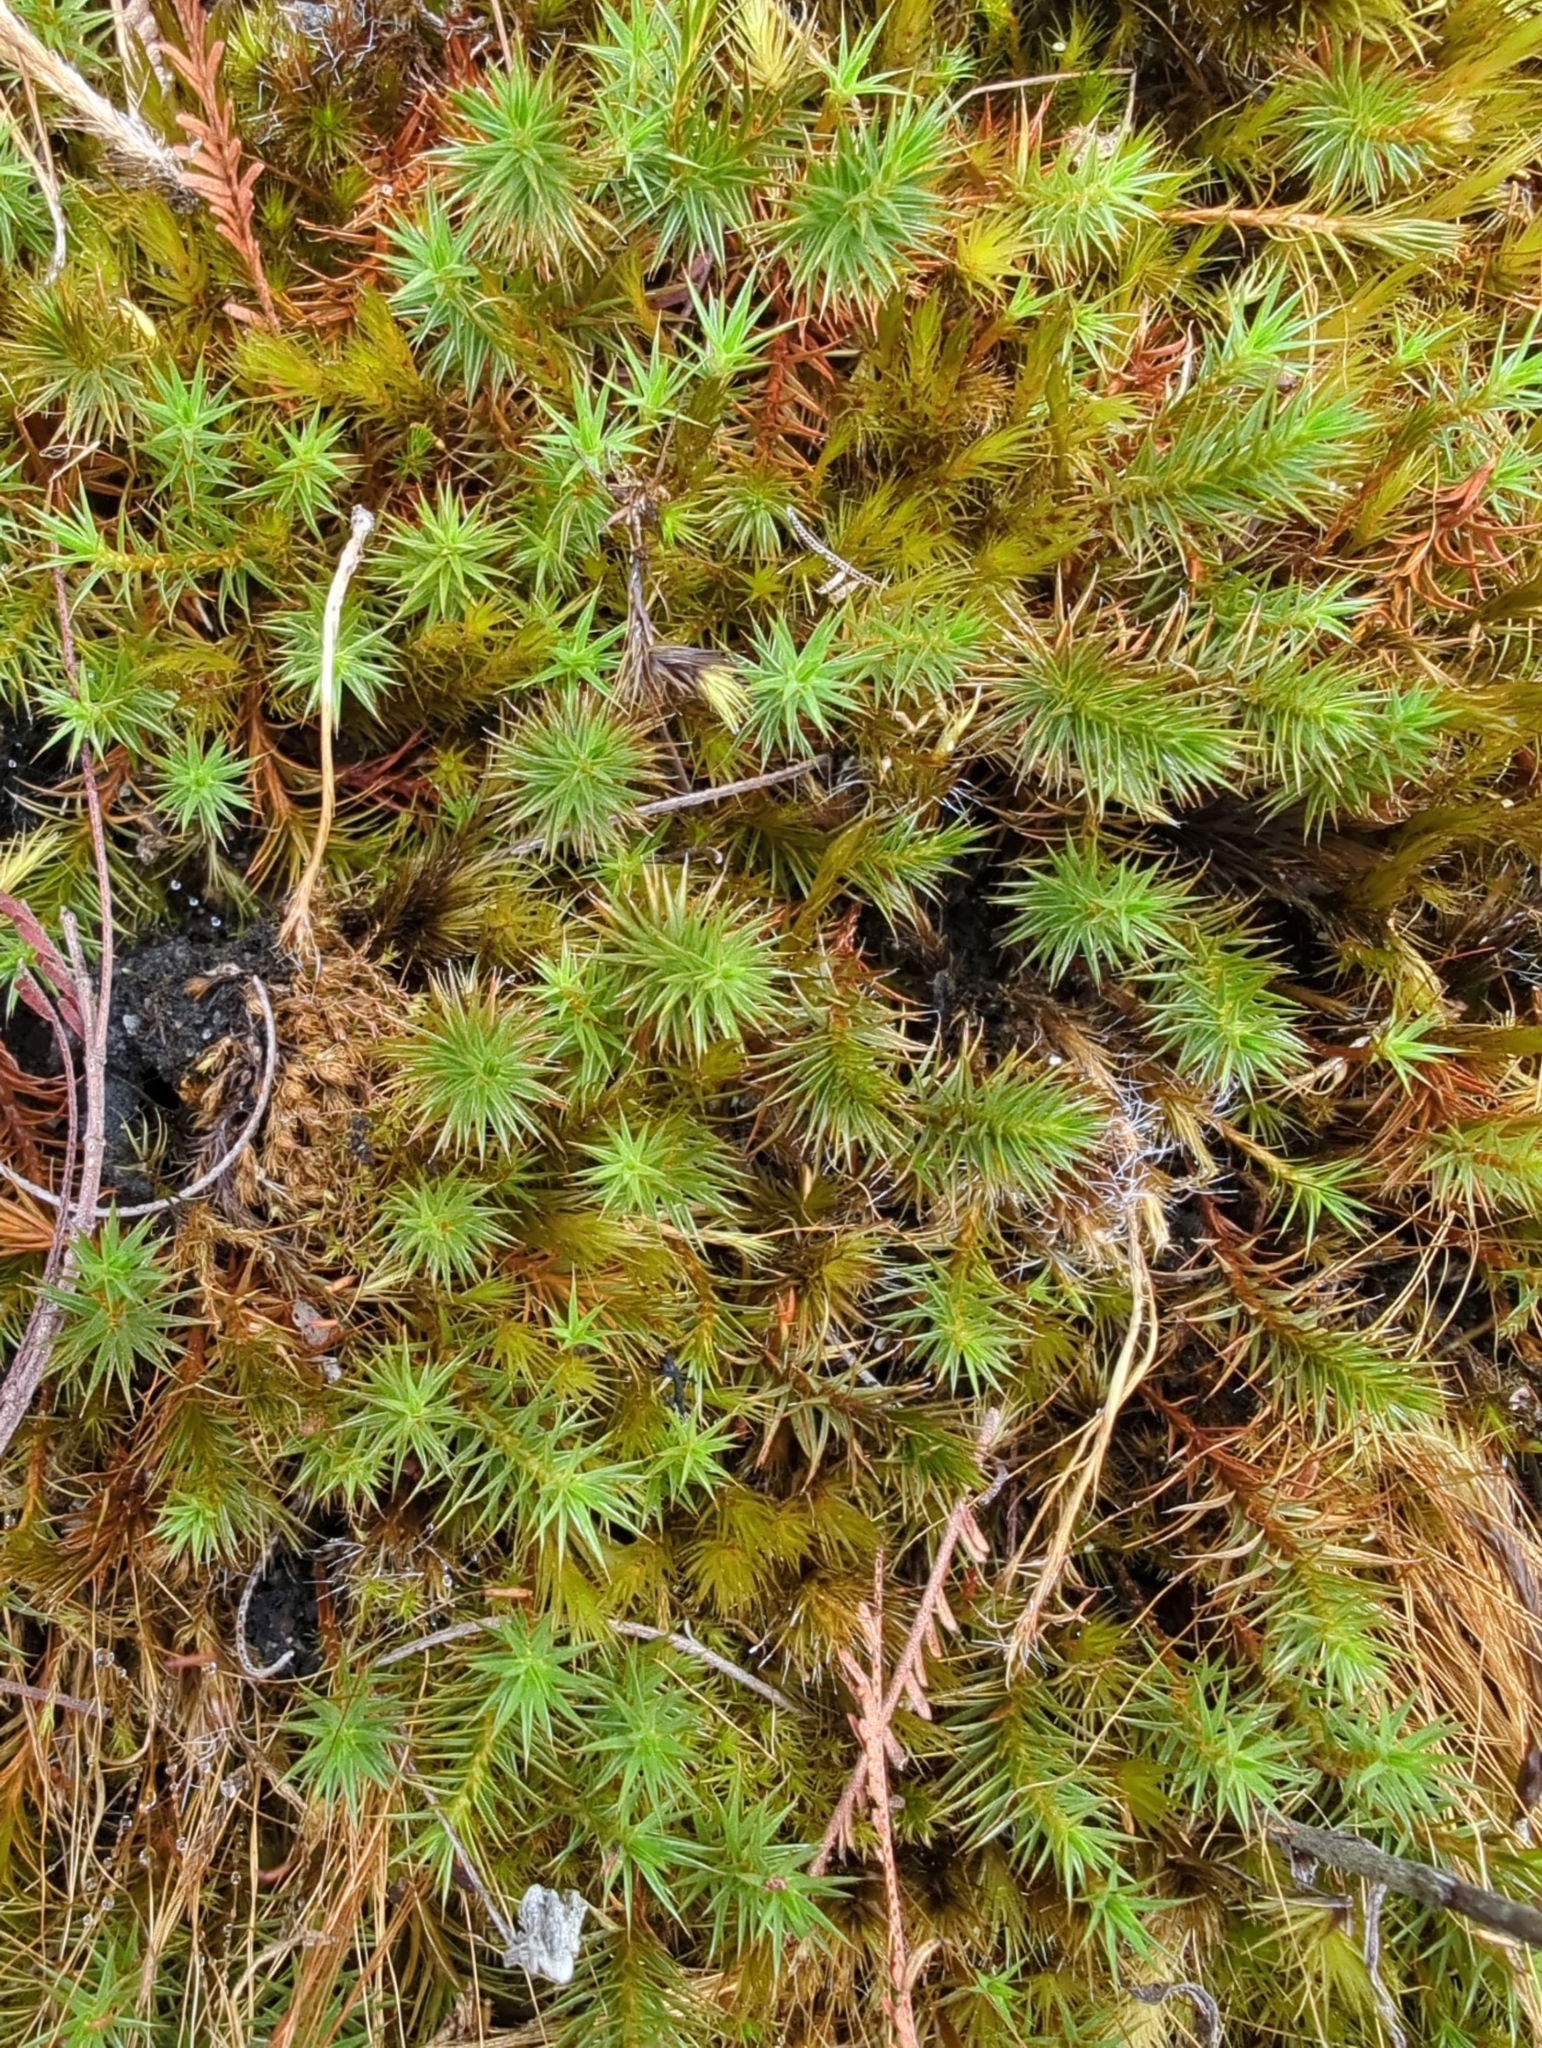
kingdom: Plantae
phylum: Bryophyta
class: Polytrichopsida
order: Polytrichales
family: Polytrichaceae
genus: Polytrichum
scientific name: Polytrichum juniperinum
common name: Juniper haircap moss
